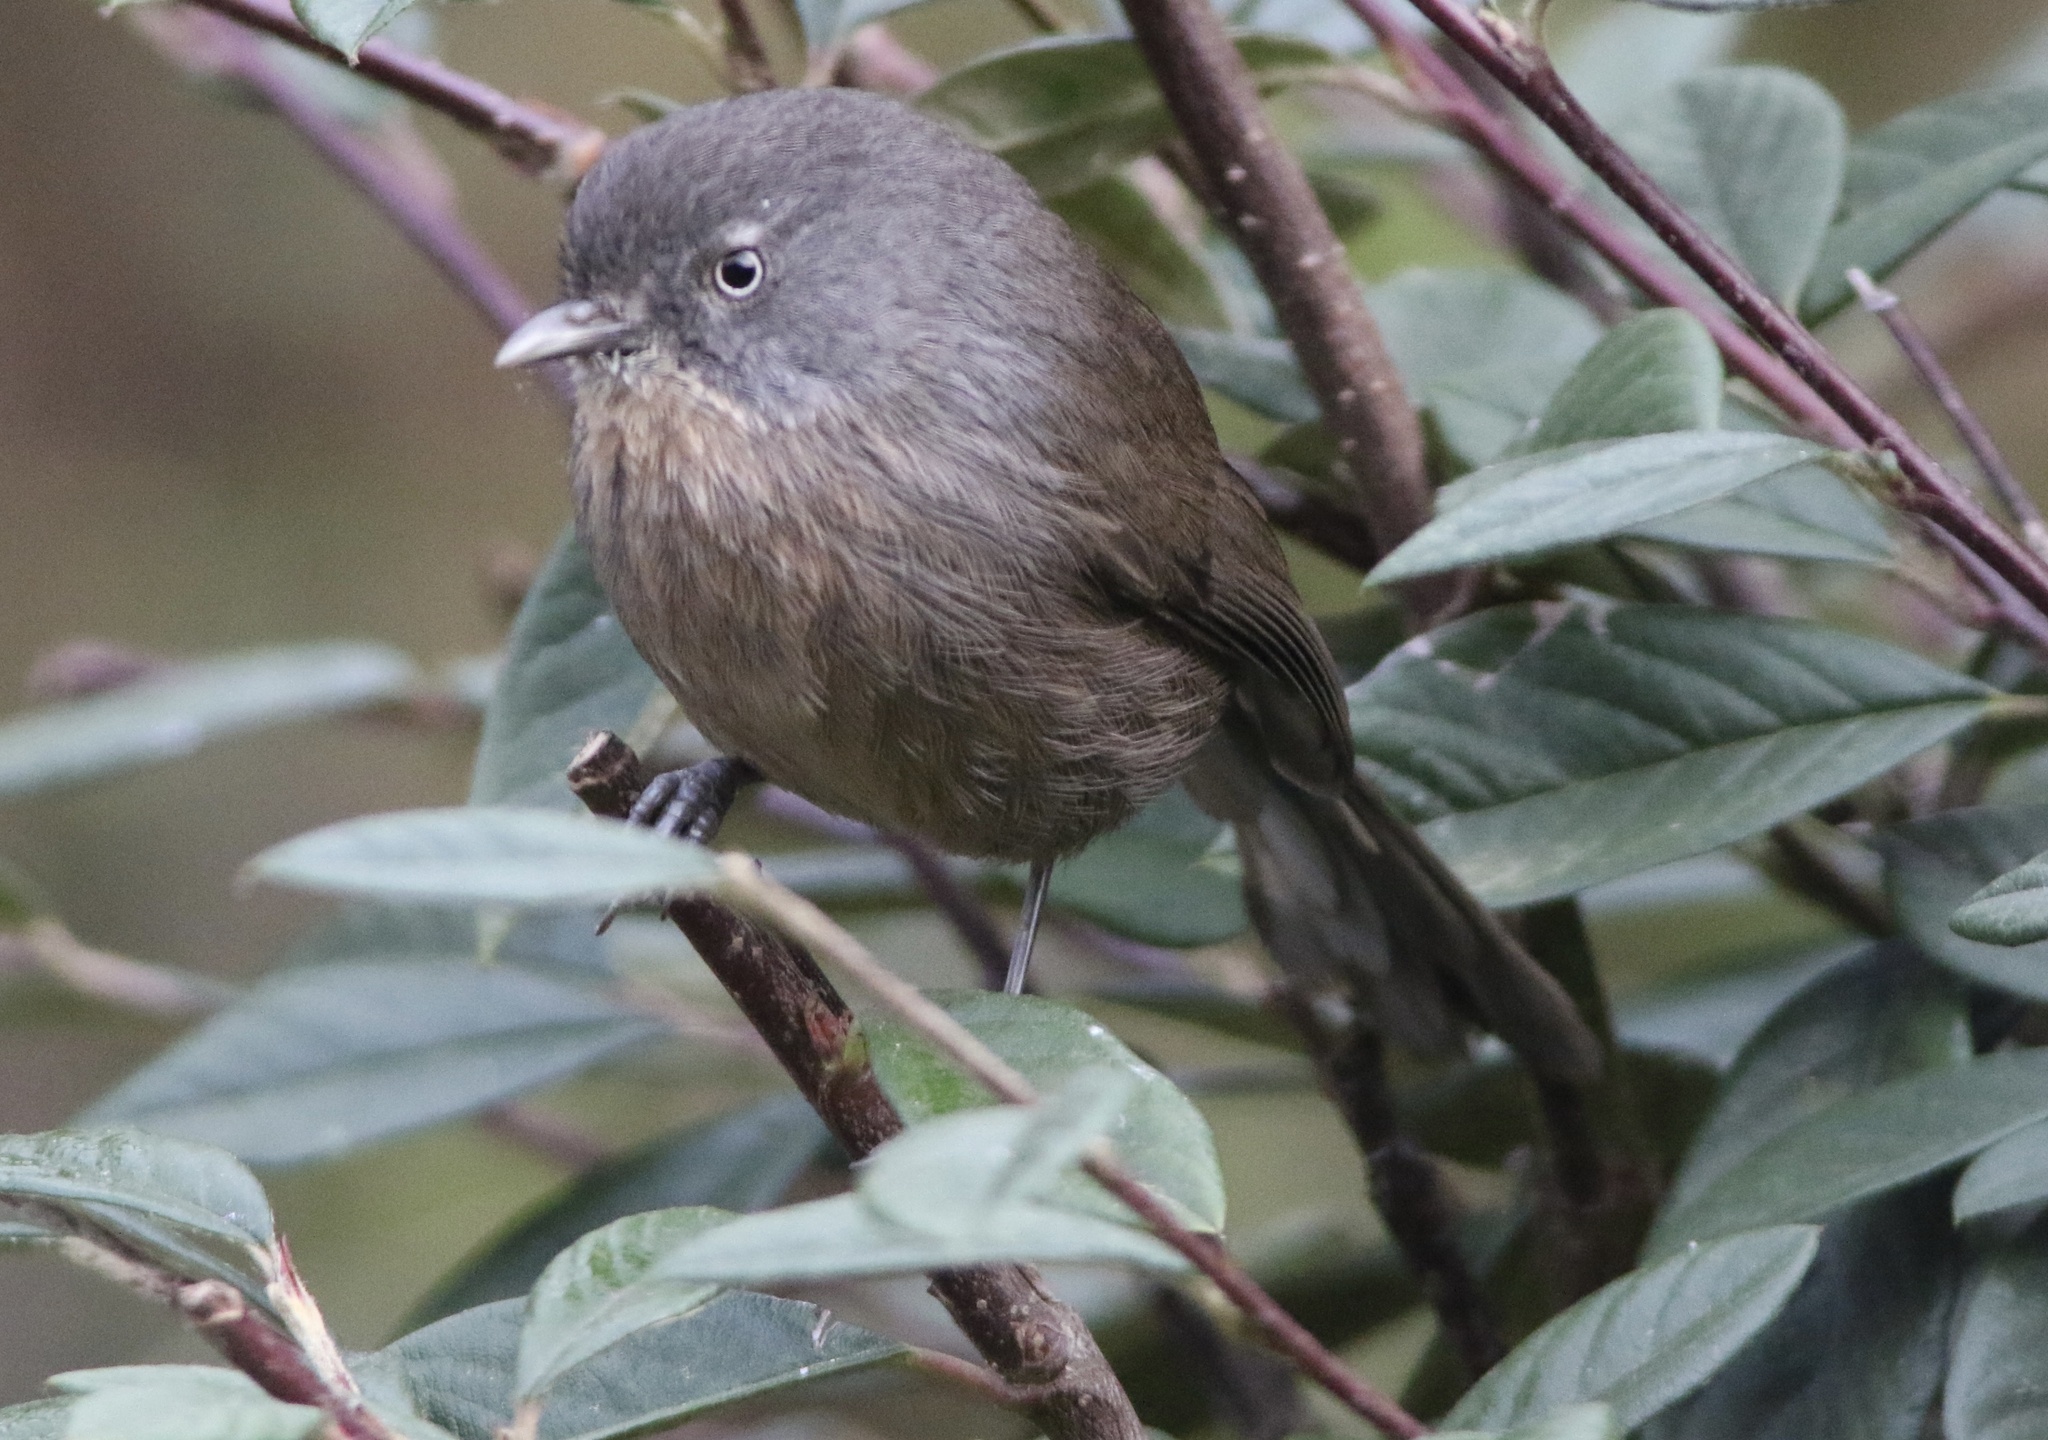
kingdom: Animalia
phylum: Chordata
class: Aves
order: Passeriformes
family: Sylviidae
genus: Chamaea
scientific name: Chamaea fasciata
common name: Wrentit
